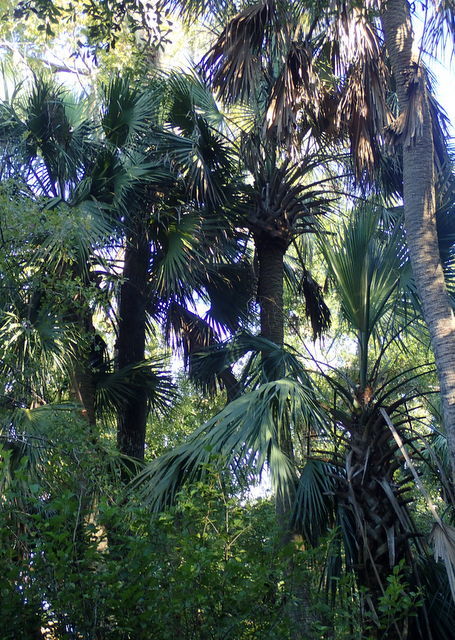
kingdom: Plantae
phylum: Tracheophyta
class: Liliopsida
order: Arecales
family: Arecaceae
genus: Sabal
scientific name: Sabal palmetto
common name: Blue palmetto
